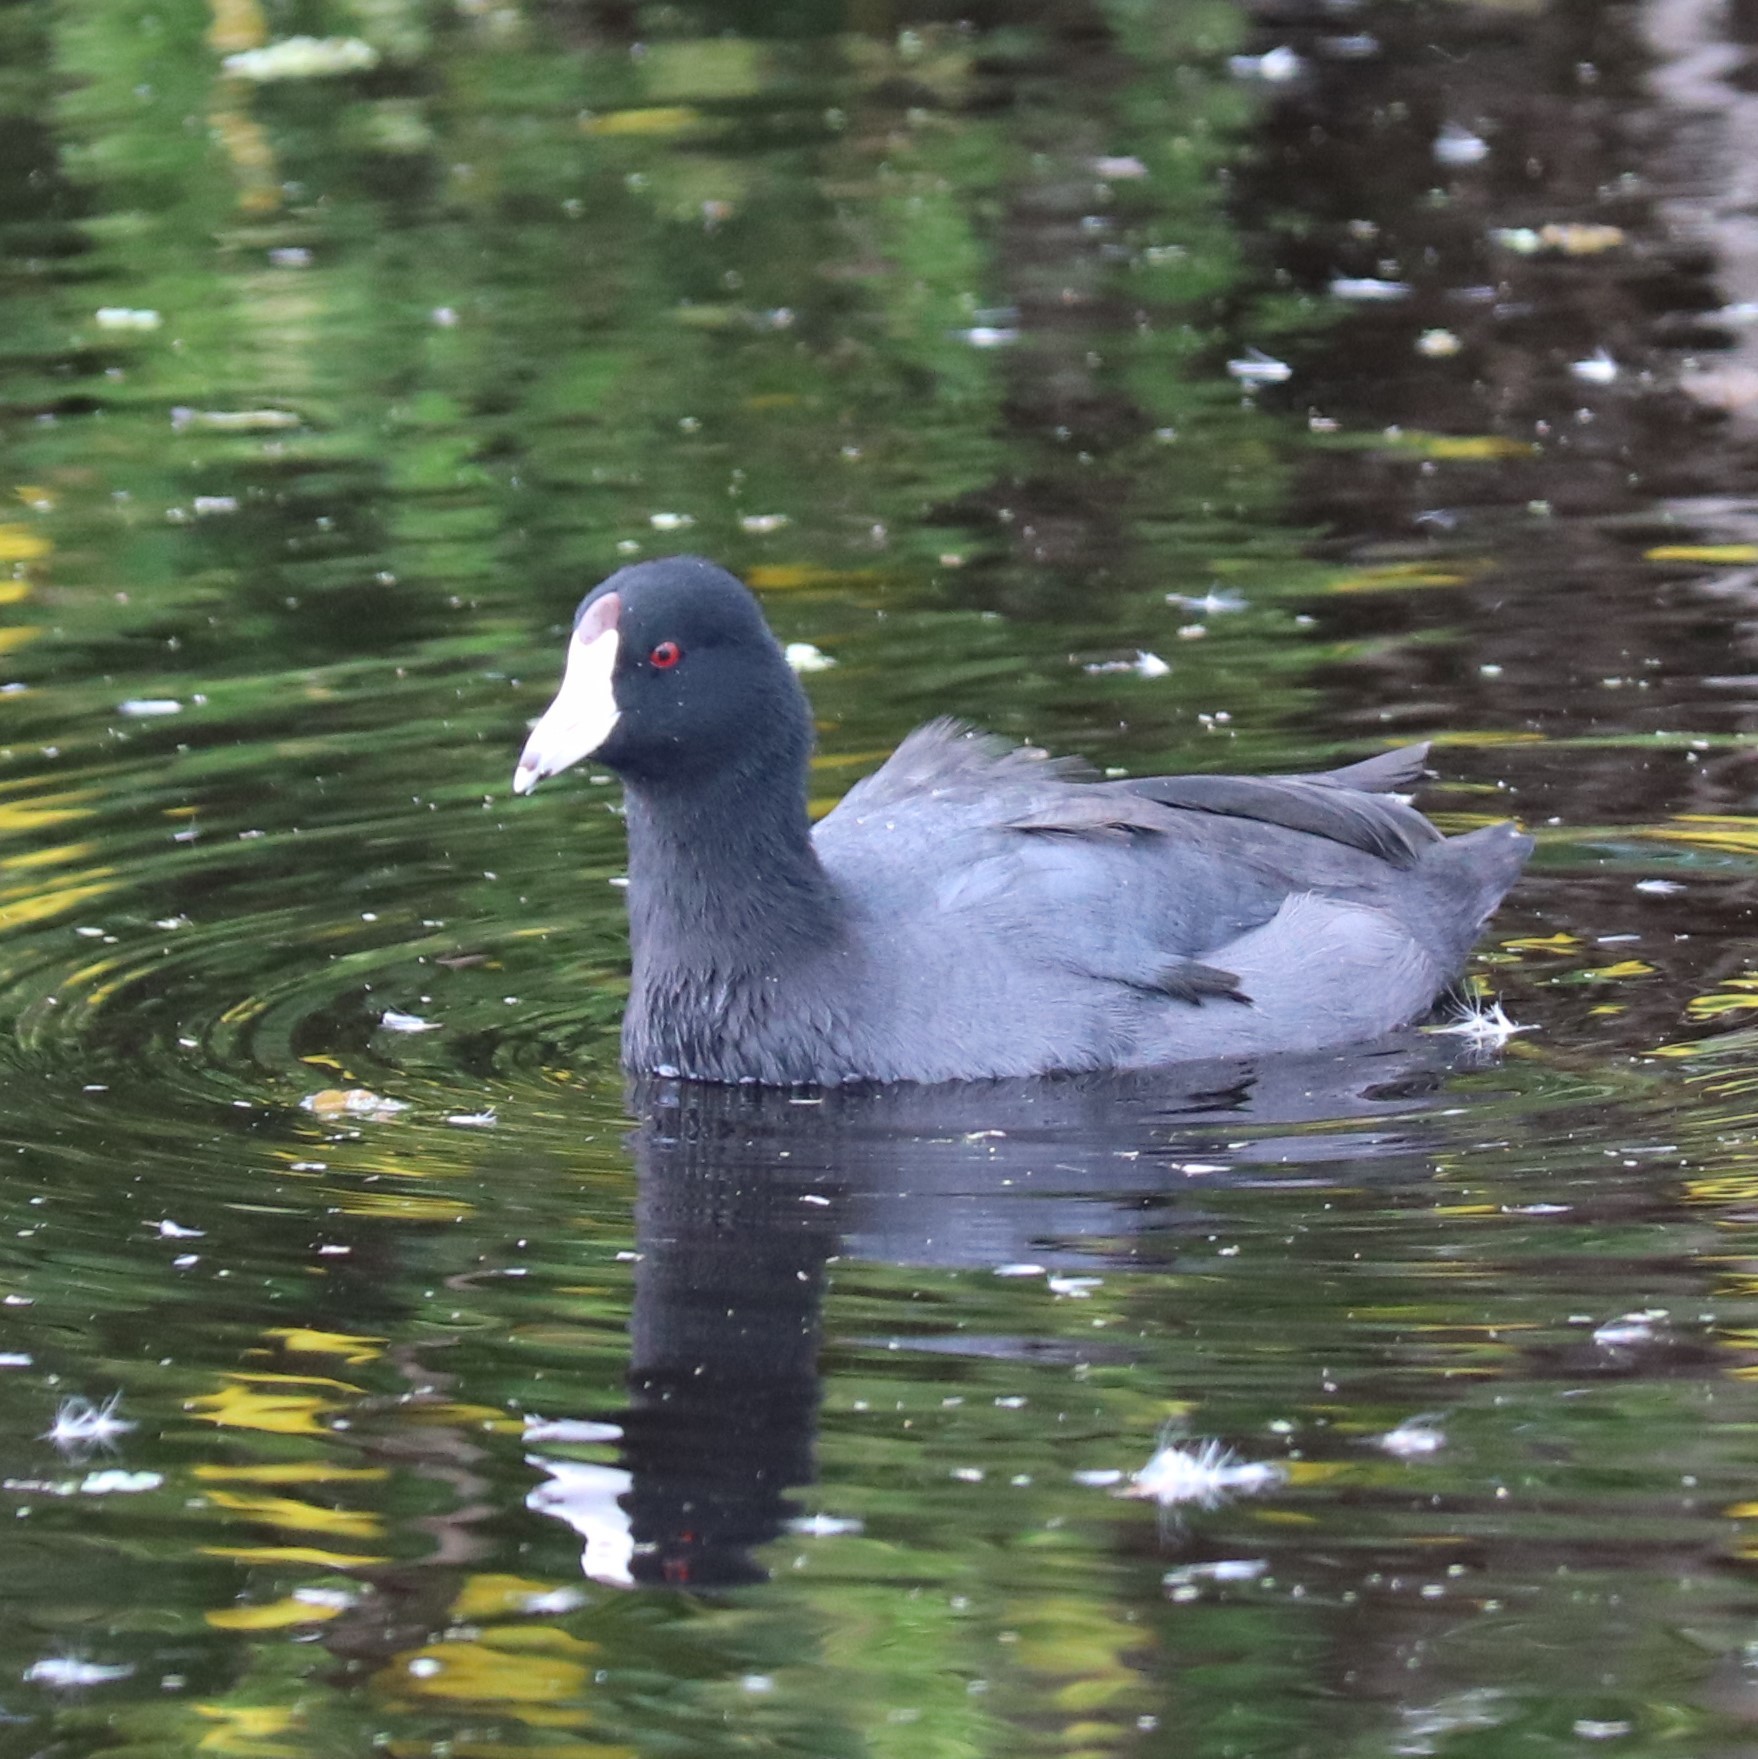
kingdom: Animalia
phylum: Chordata
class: Aves
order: Gruiformes
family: Rallidae
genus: Fulica
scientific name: Fulica americana
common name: American coot
